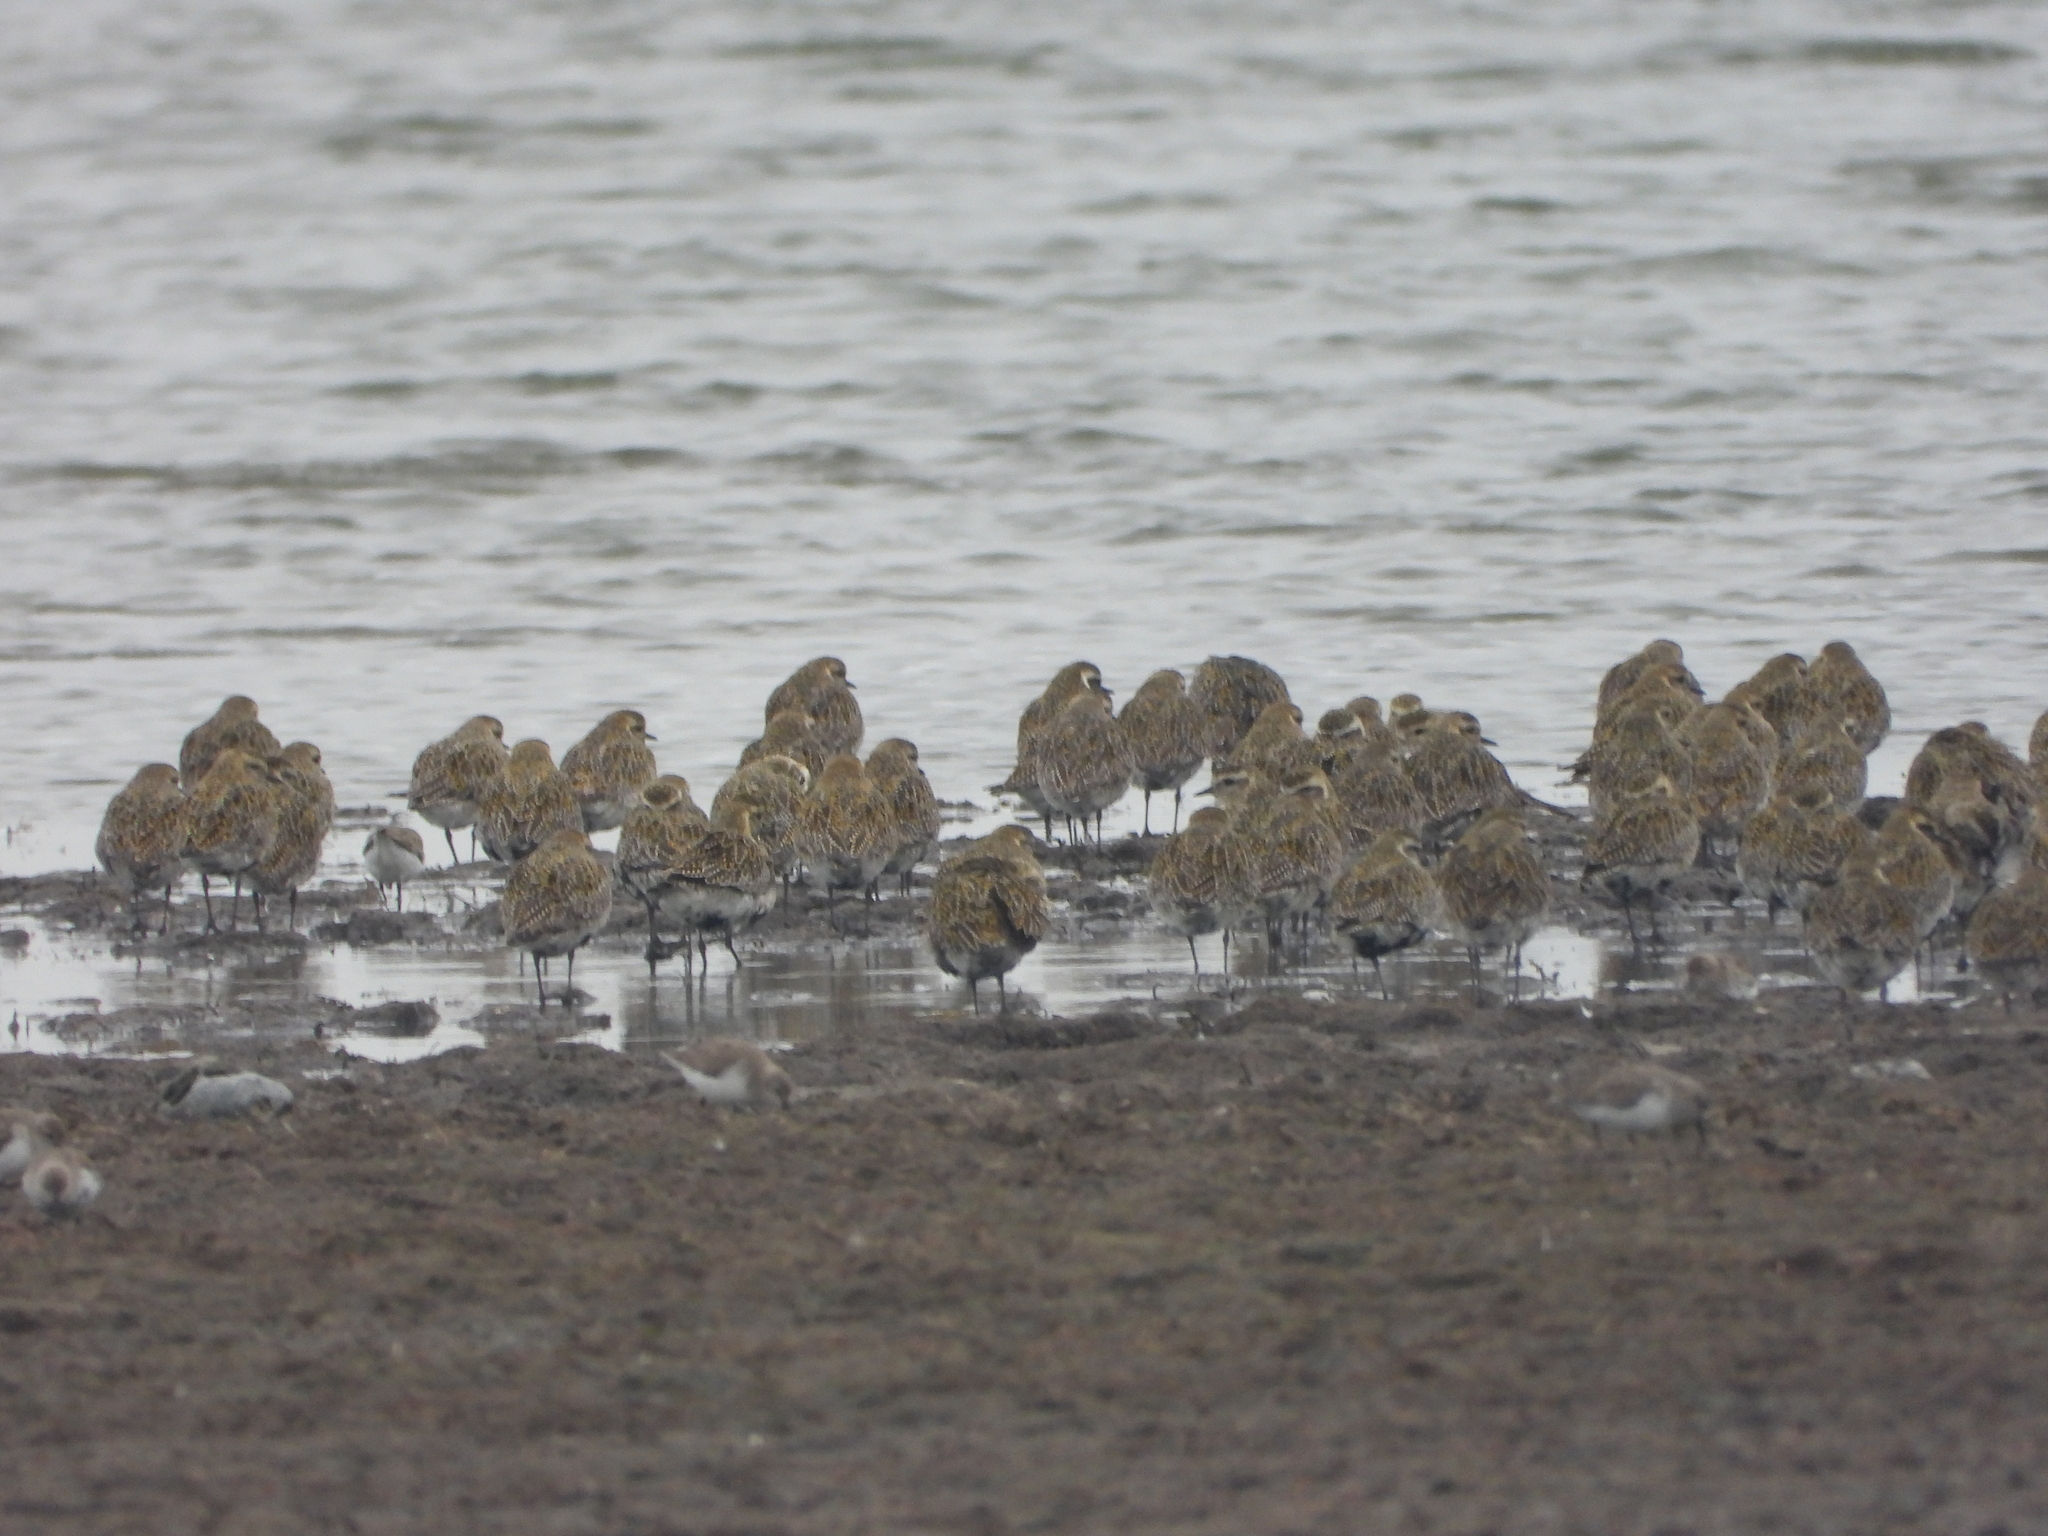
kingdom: Animalia
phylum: Chordata
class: Aves
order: Charadriiformes
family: Charadriidae
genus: Pluvialis
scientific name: Pluvialis apricaria
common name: European golden plover
